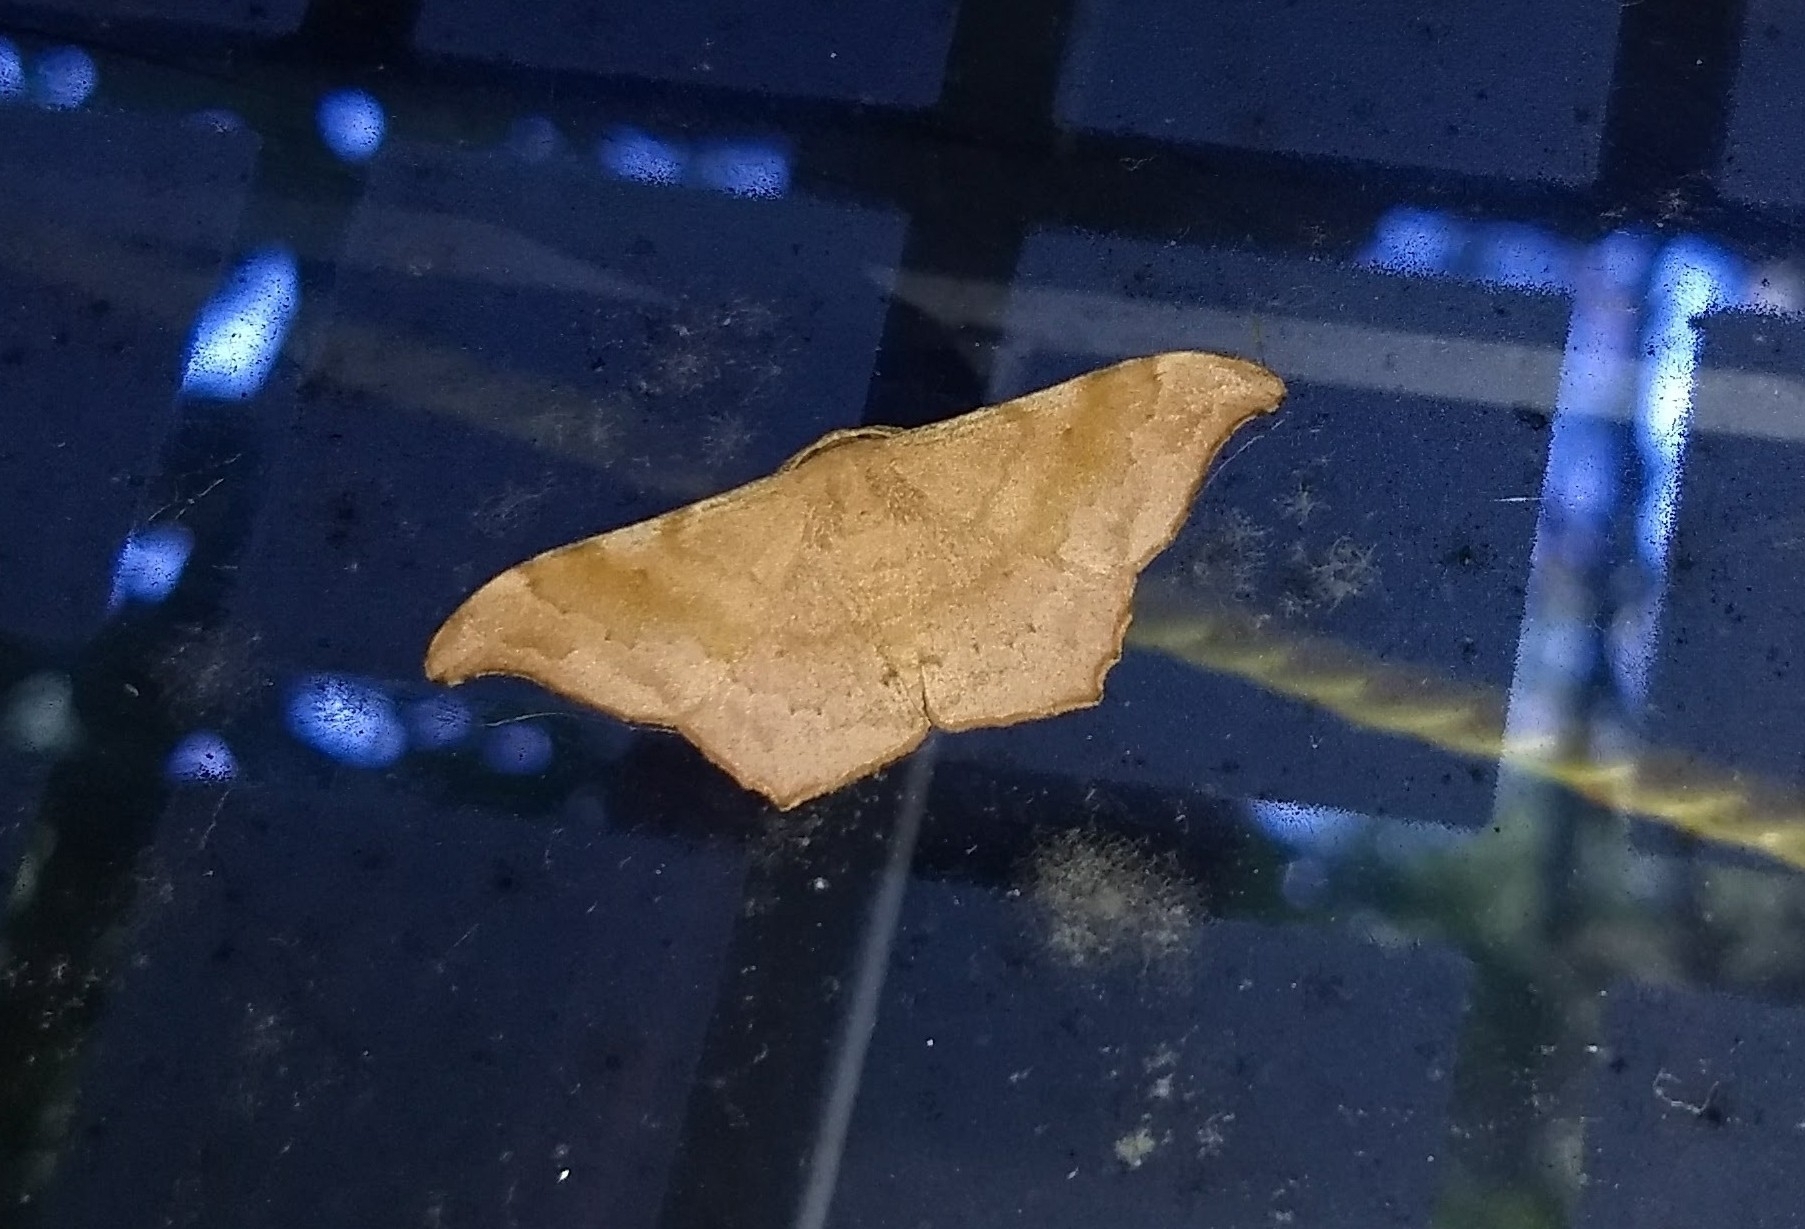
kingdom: Animalia
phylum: Arthropoda
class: Insecta
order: Lepidoptera
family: Geometridae
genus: Hyposidra
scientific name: Hyposidra talaca
